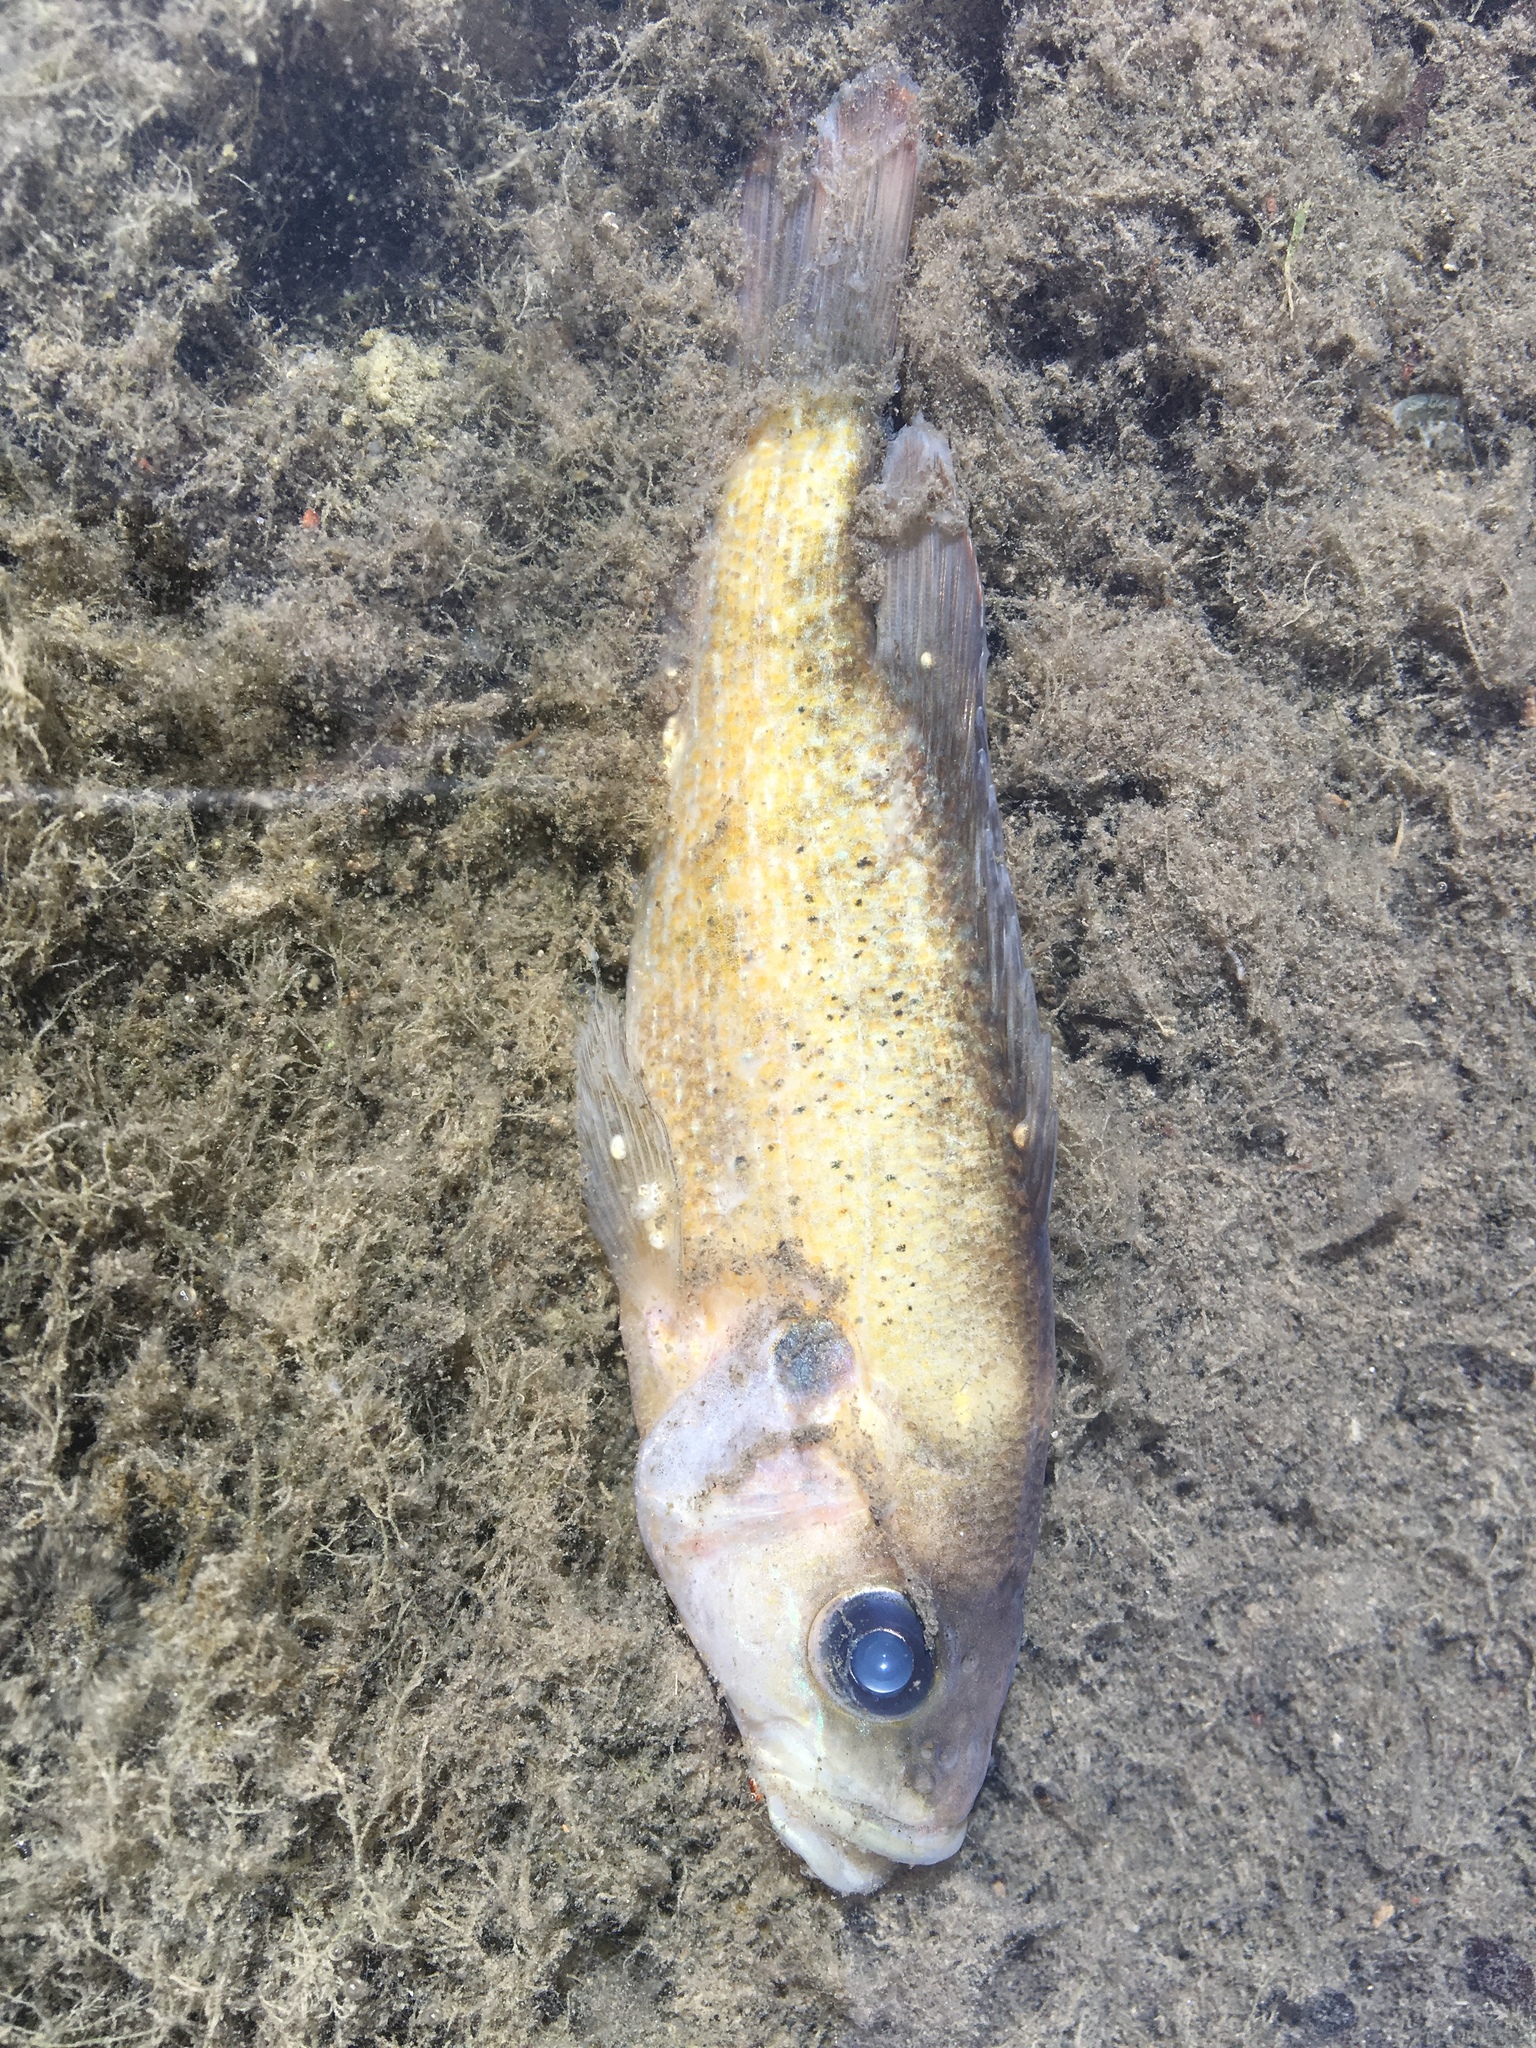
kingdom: Animalia
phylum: Chordata
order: Perciformes
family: Centrarchidae
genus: Lepomis
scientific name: Lepomis cyanellus
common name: Green sunfish
